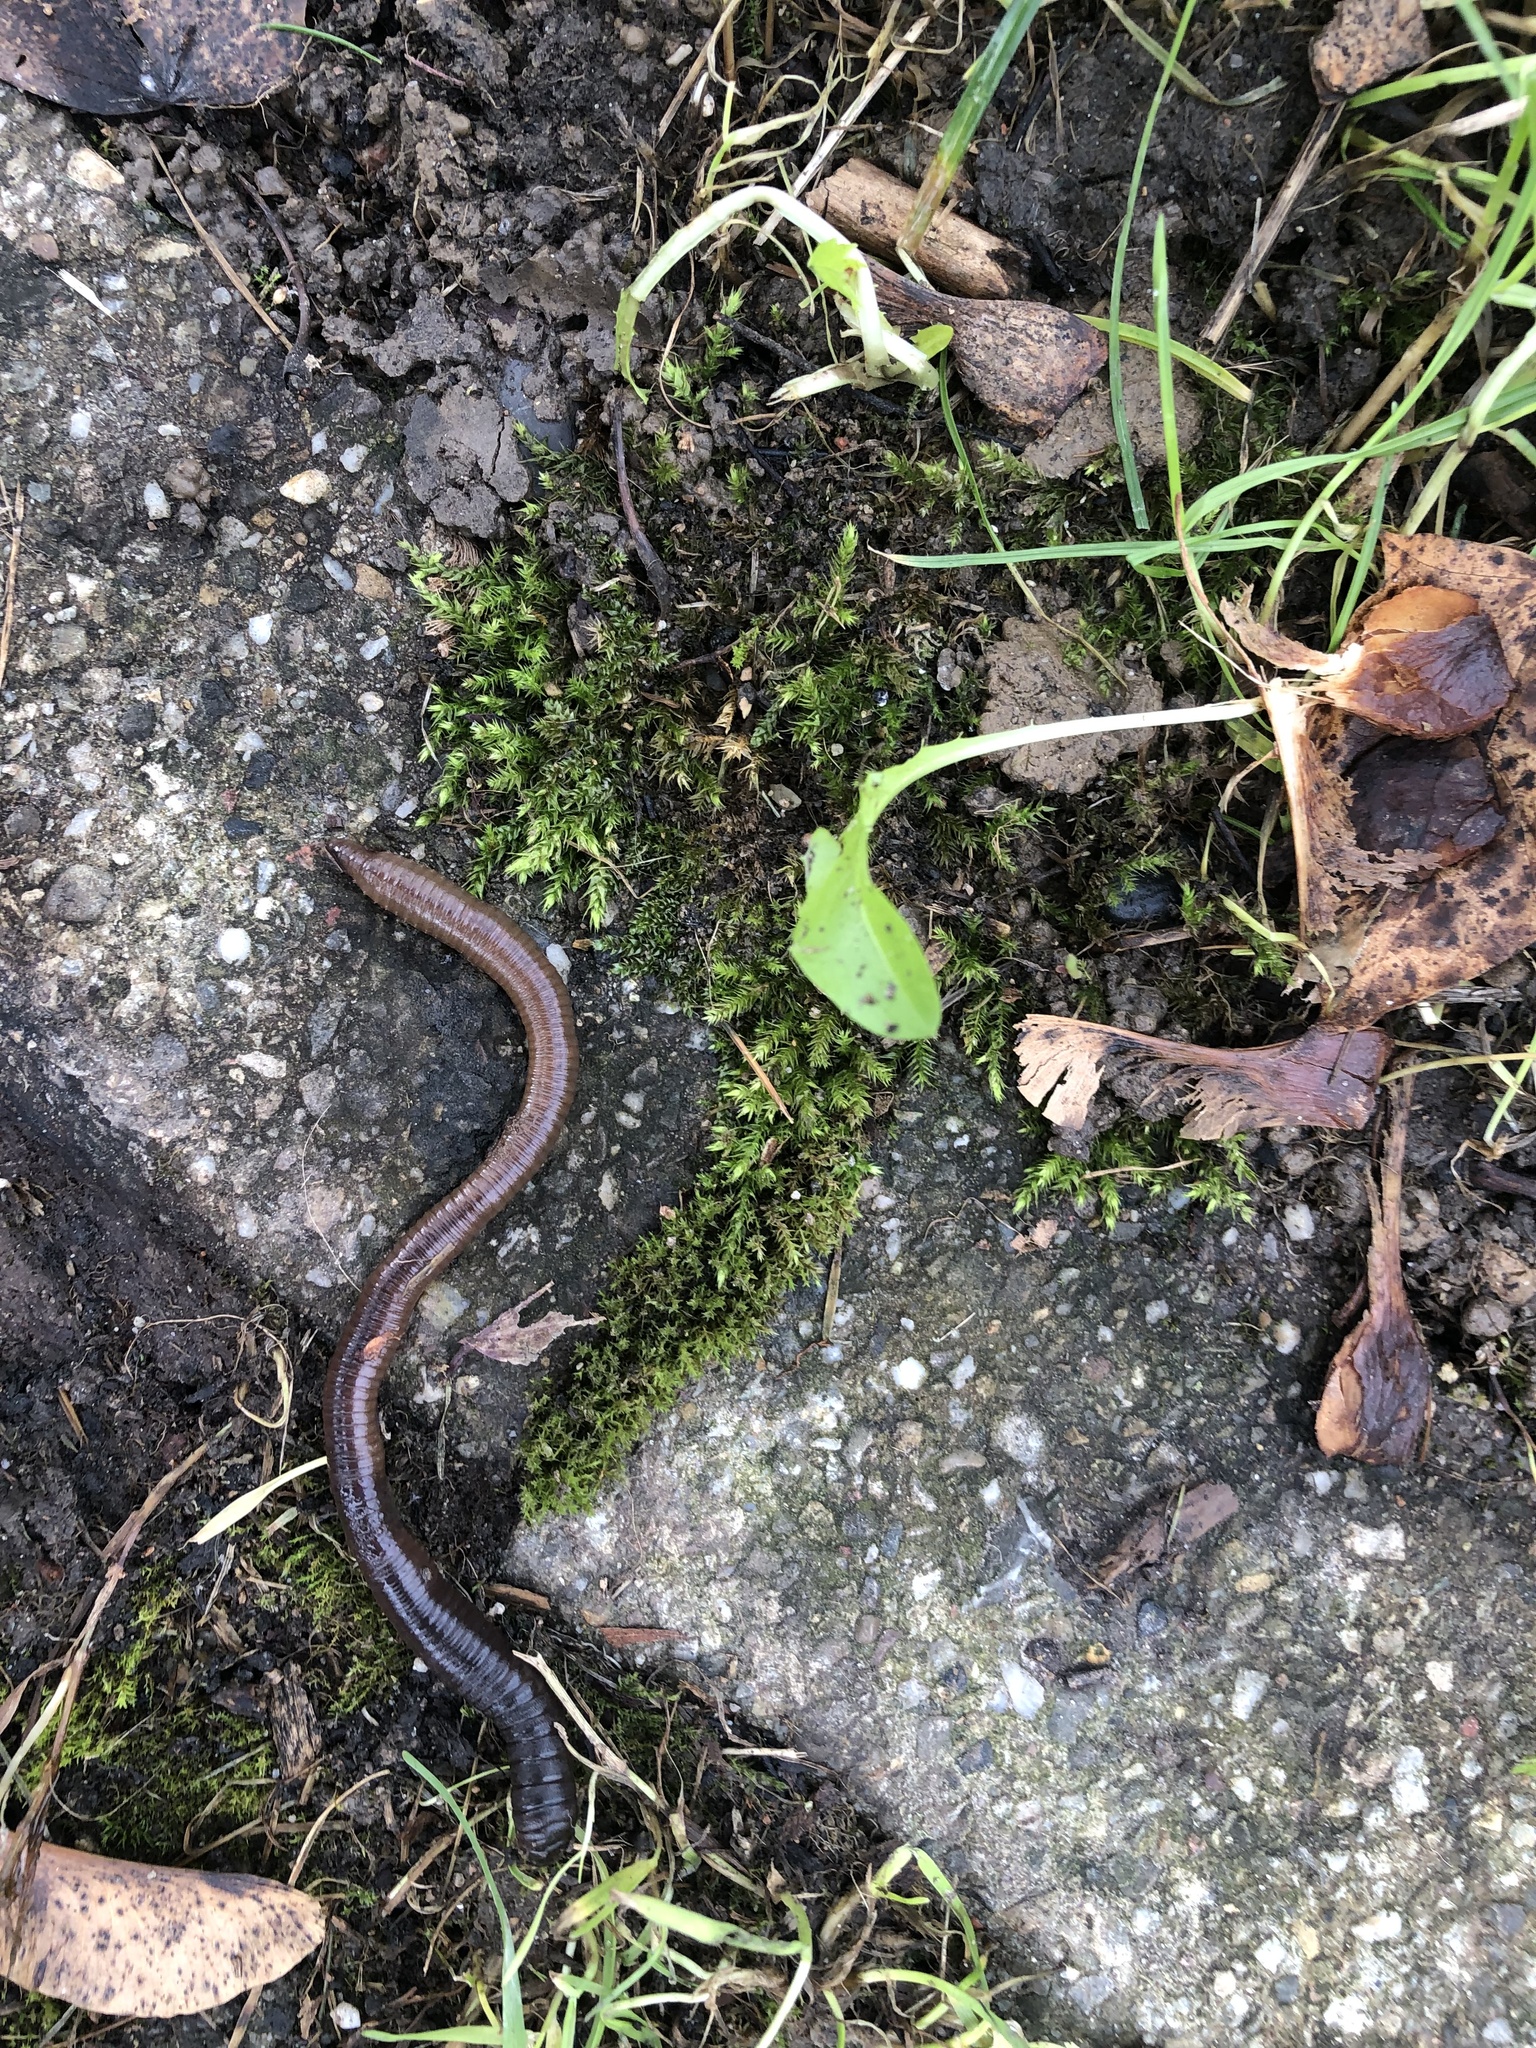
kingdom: Animalia
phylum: Annelida
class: Clitellata
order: Crassiclitellata
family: Lumbricidae
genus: Lumbricus
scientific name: Lumbricus terrestris
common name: Common earthworm
